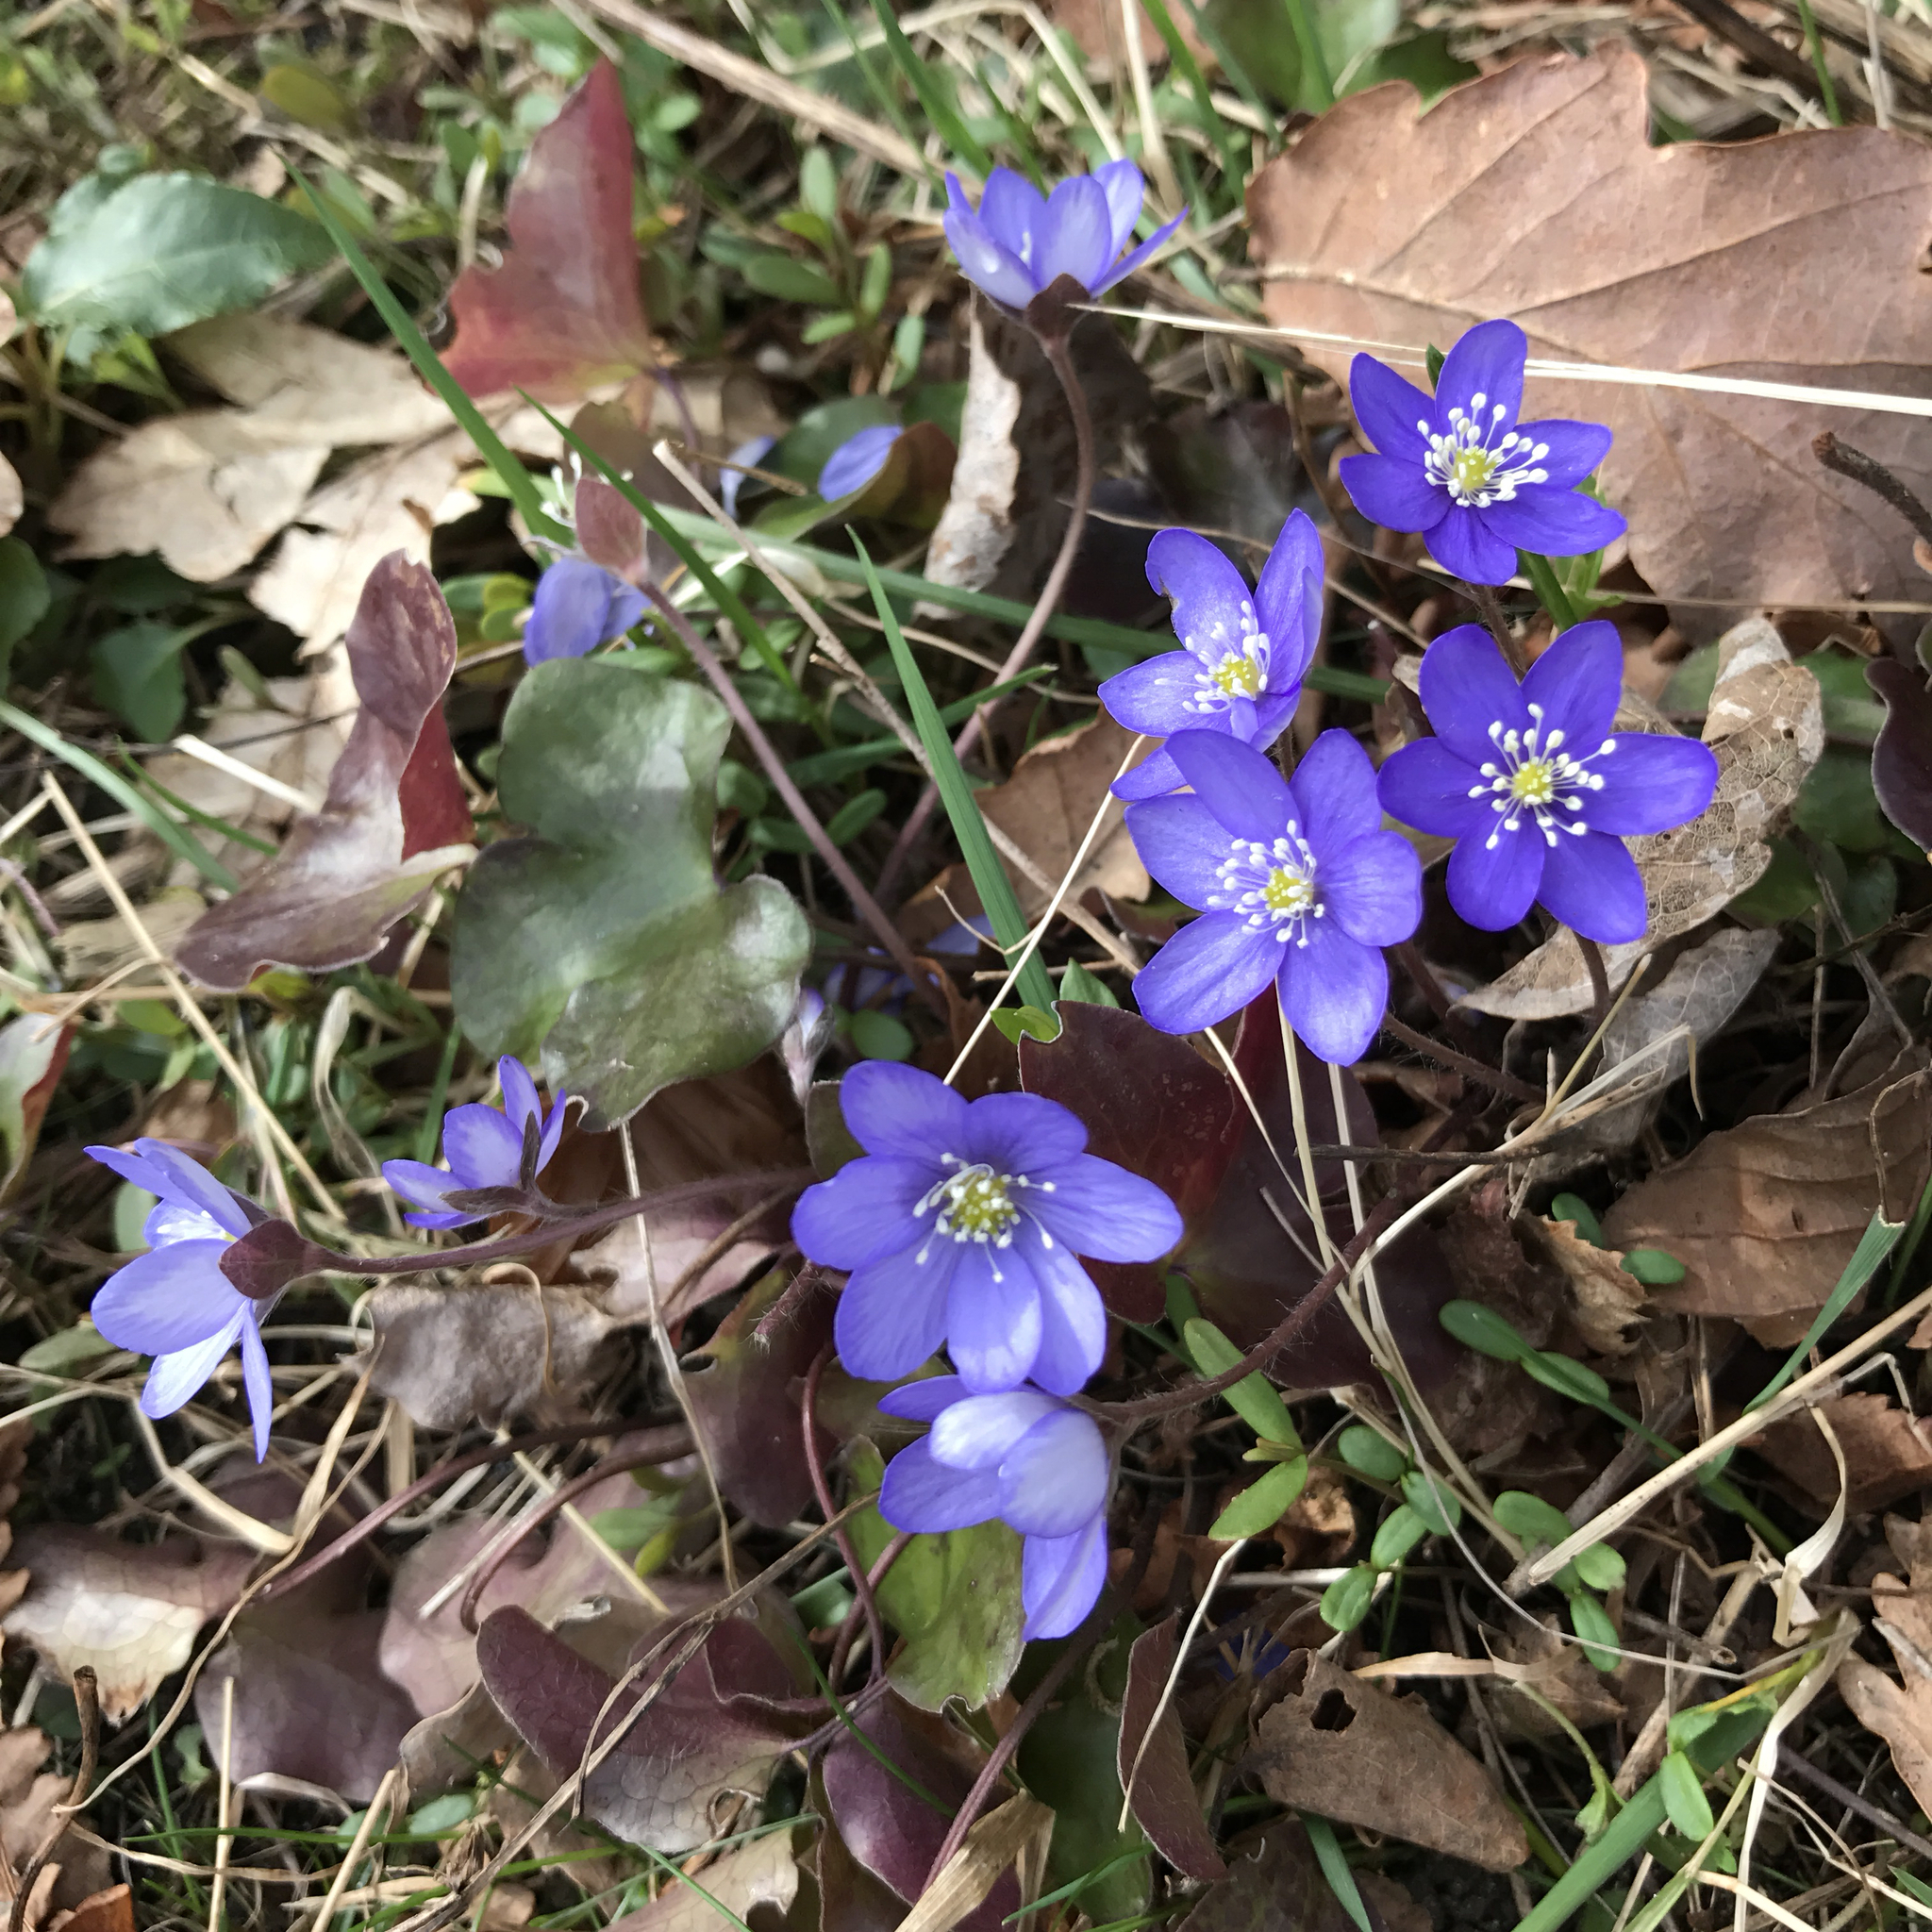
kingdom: Plantae
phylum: Tracheophyta
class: Magnoliopsida
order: Ranunculales
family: Ranunculaceae
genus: Hepatica
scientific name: Hepatica nobilis
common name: Liverleaf
